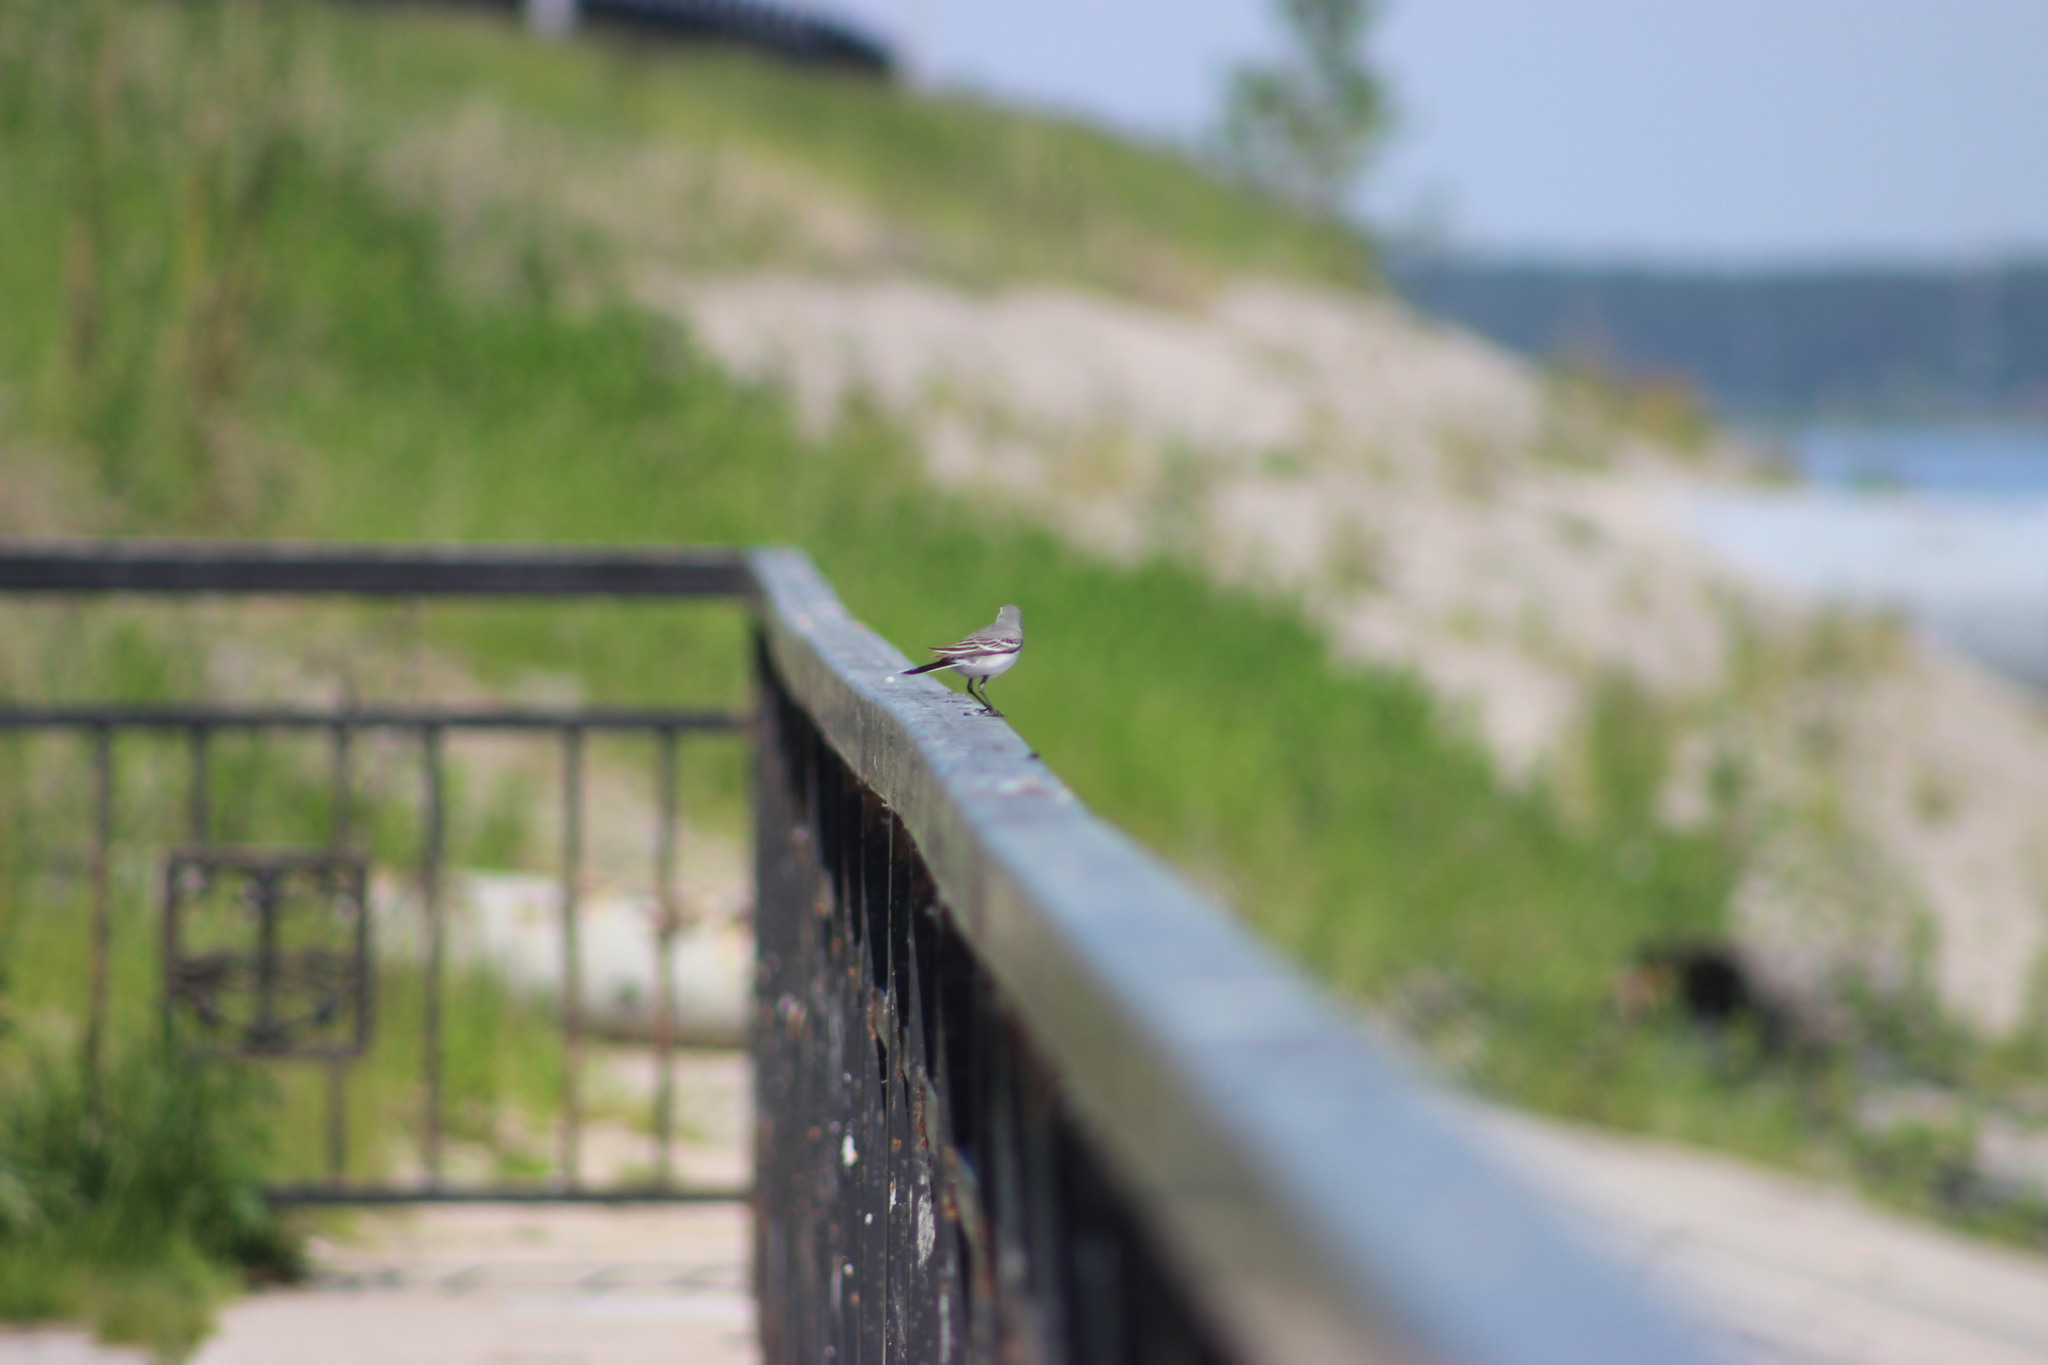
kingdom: Animalia
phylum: Chordata
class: Aves
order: Passeriformes
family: Motacillidae
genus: Motacilla
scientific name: Motacilla alba
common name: White wagtail
